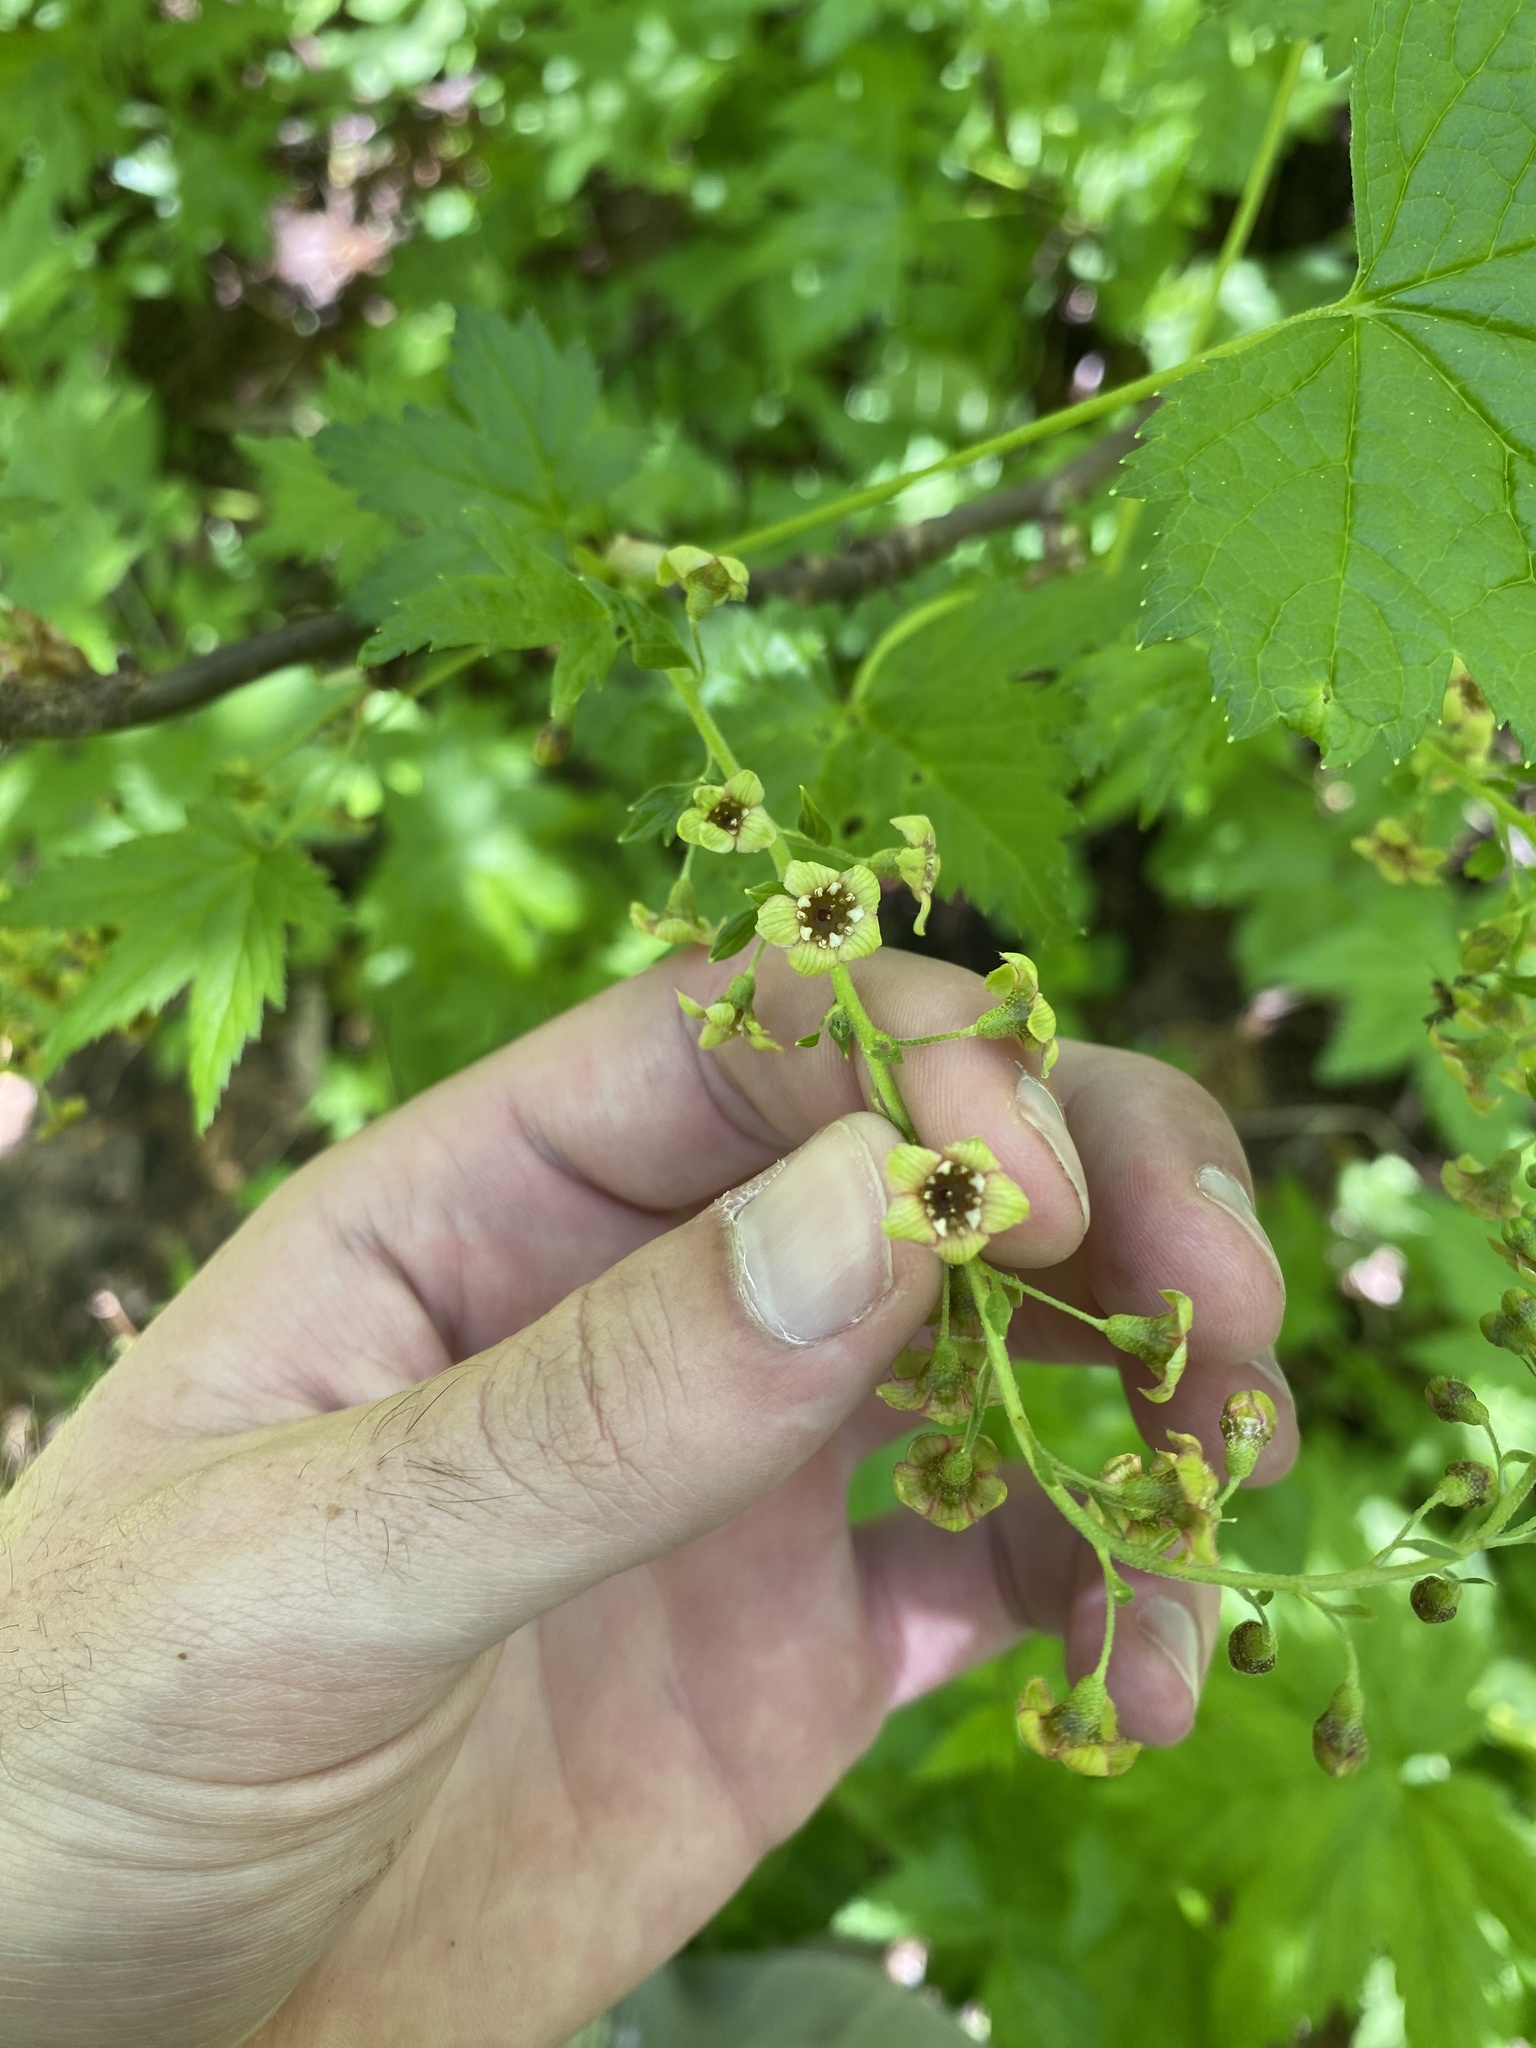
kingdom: Plantae
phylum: Tracheophyta
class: Magnoliopsida
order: Saxifragales
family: Grossulariaceae
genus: Ribes
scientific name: Ribes bracteosum
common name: California black currant
